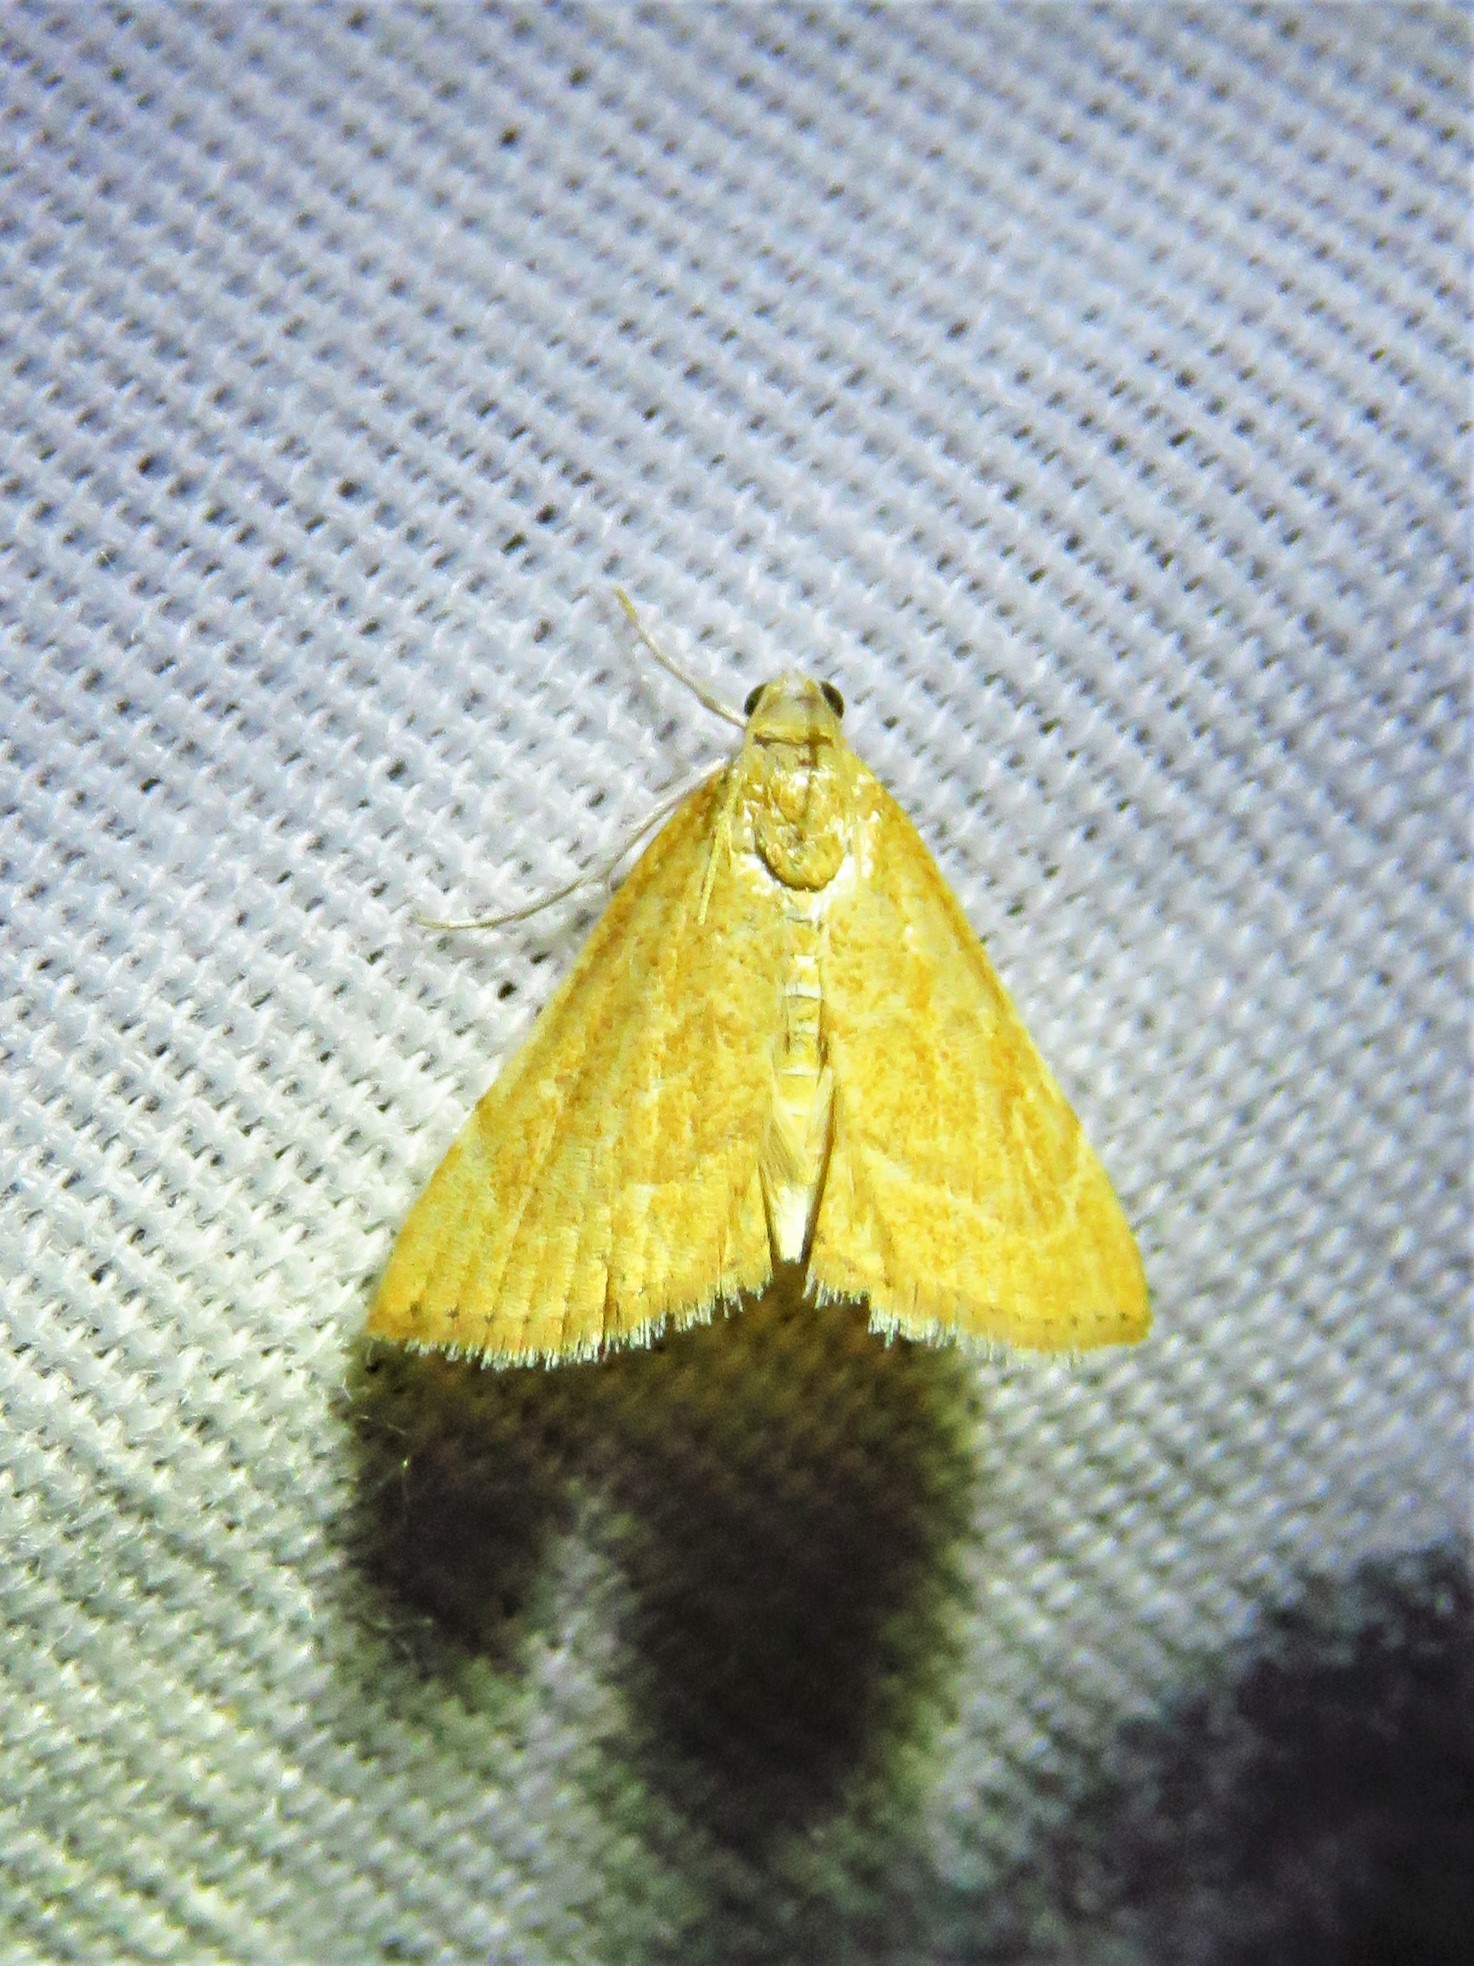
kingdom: Animalia
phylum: Arthropoda
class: Insecta
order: Lepidoptera
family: Crambidae
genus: Glaphyria
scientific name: Glaphyria invisalis
